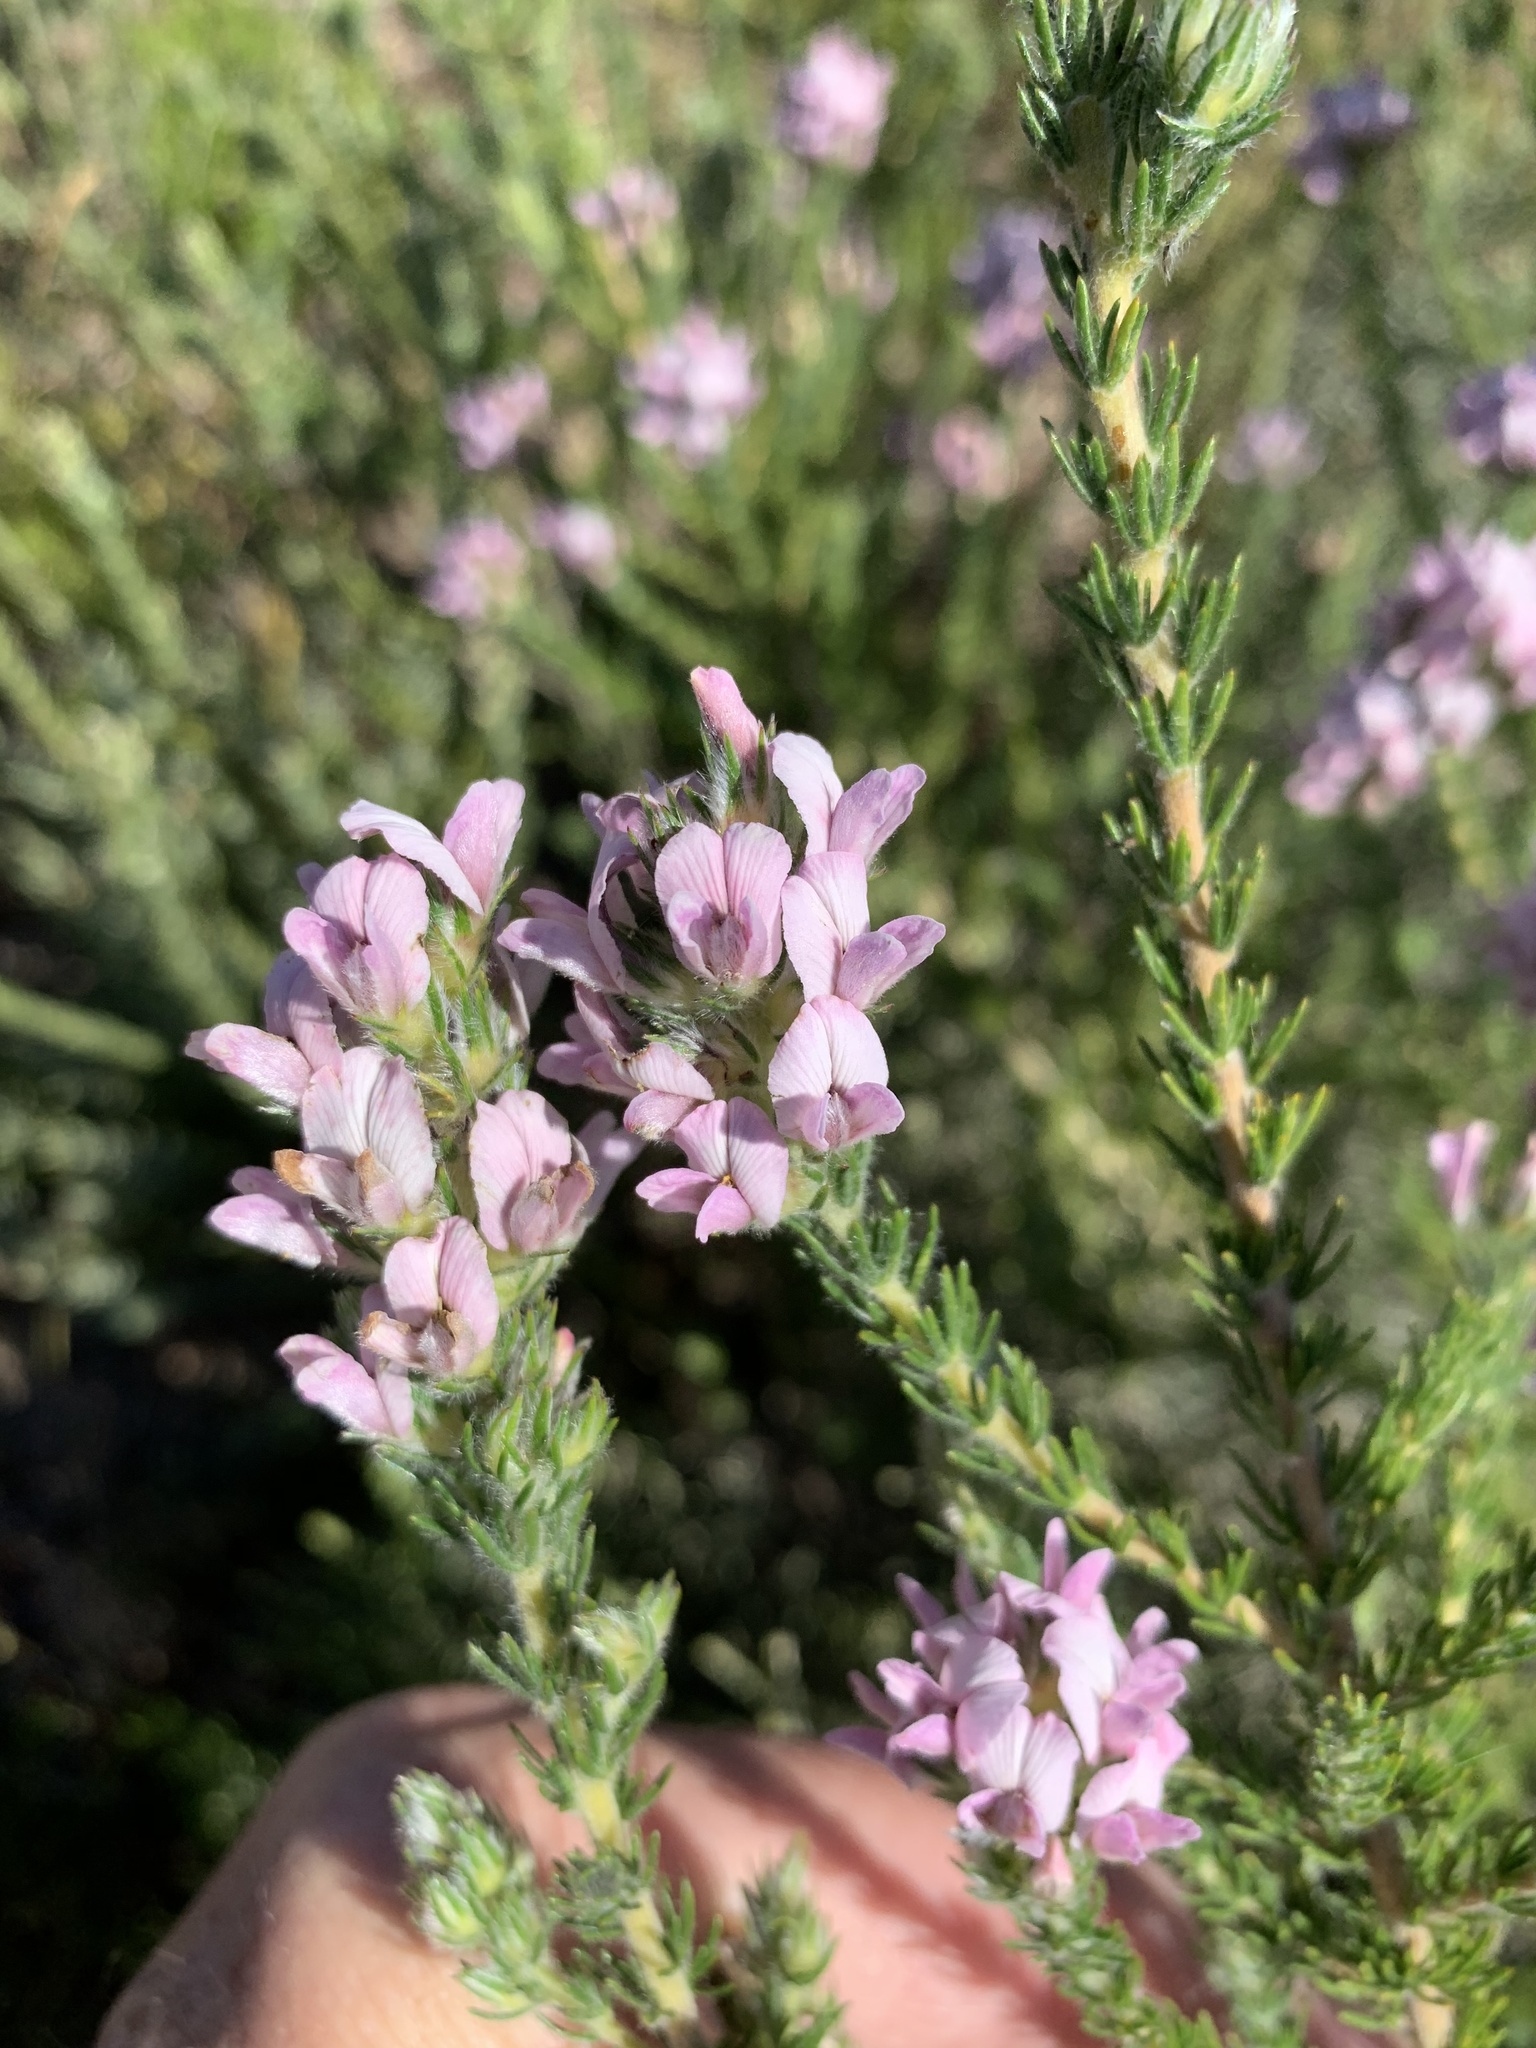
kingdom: Plantae
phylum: Tracheophyta
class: Magnoliopsida
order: Fabales
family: Fabaceae
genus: Aspalathus
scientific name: Aspalathus cephalotes
